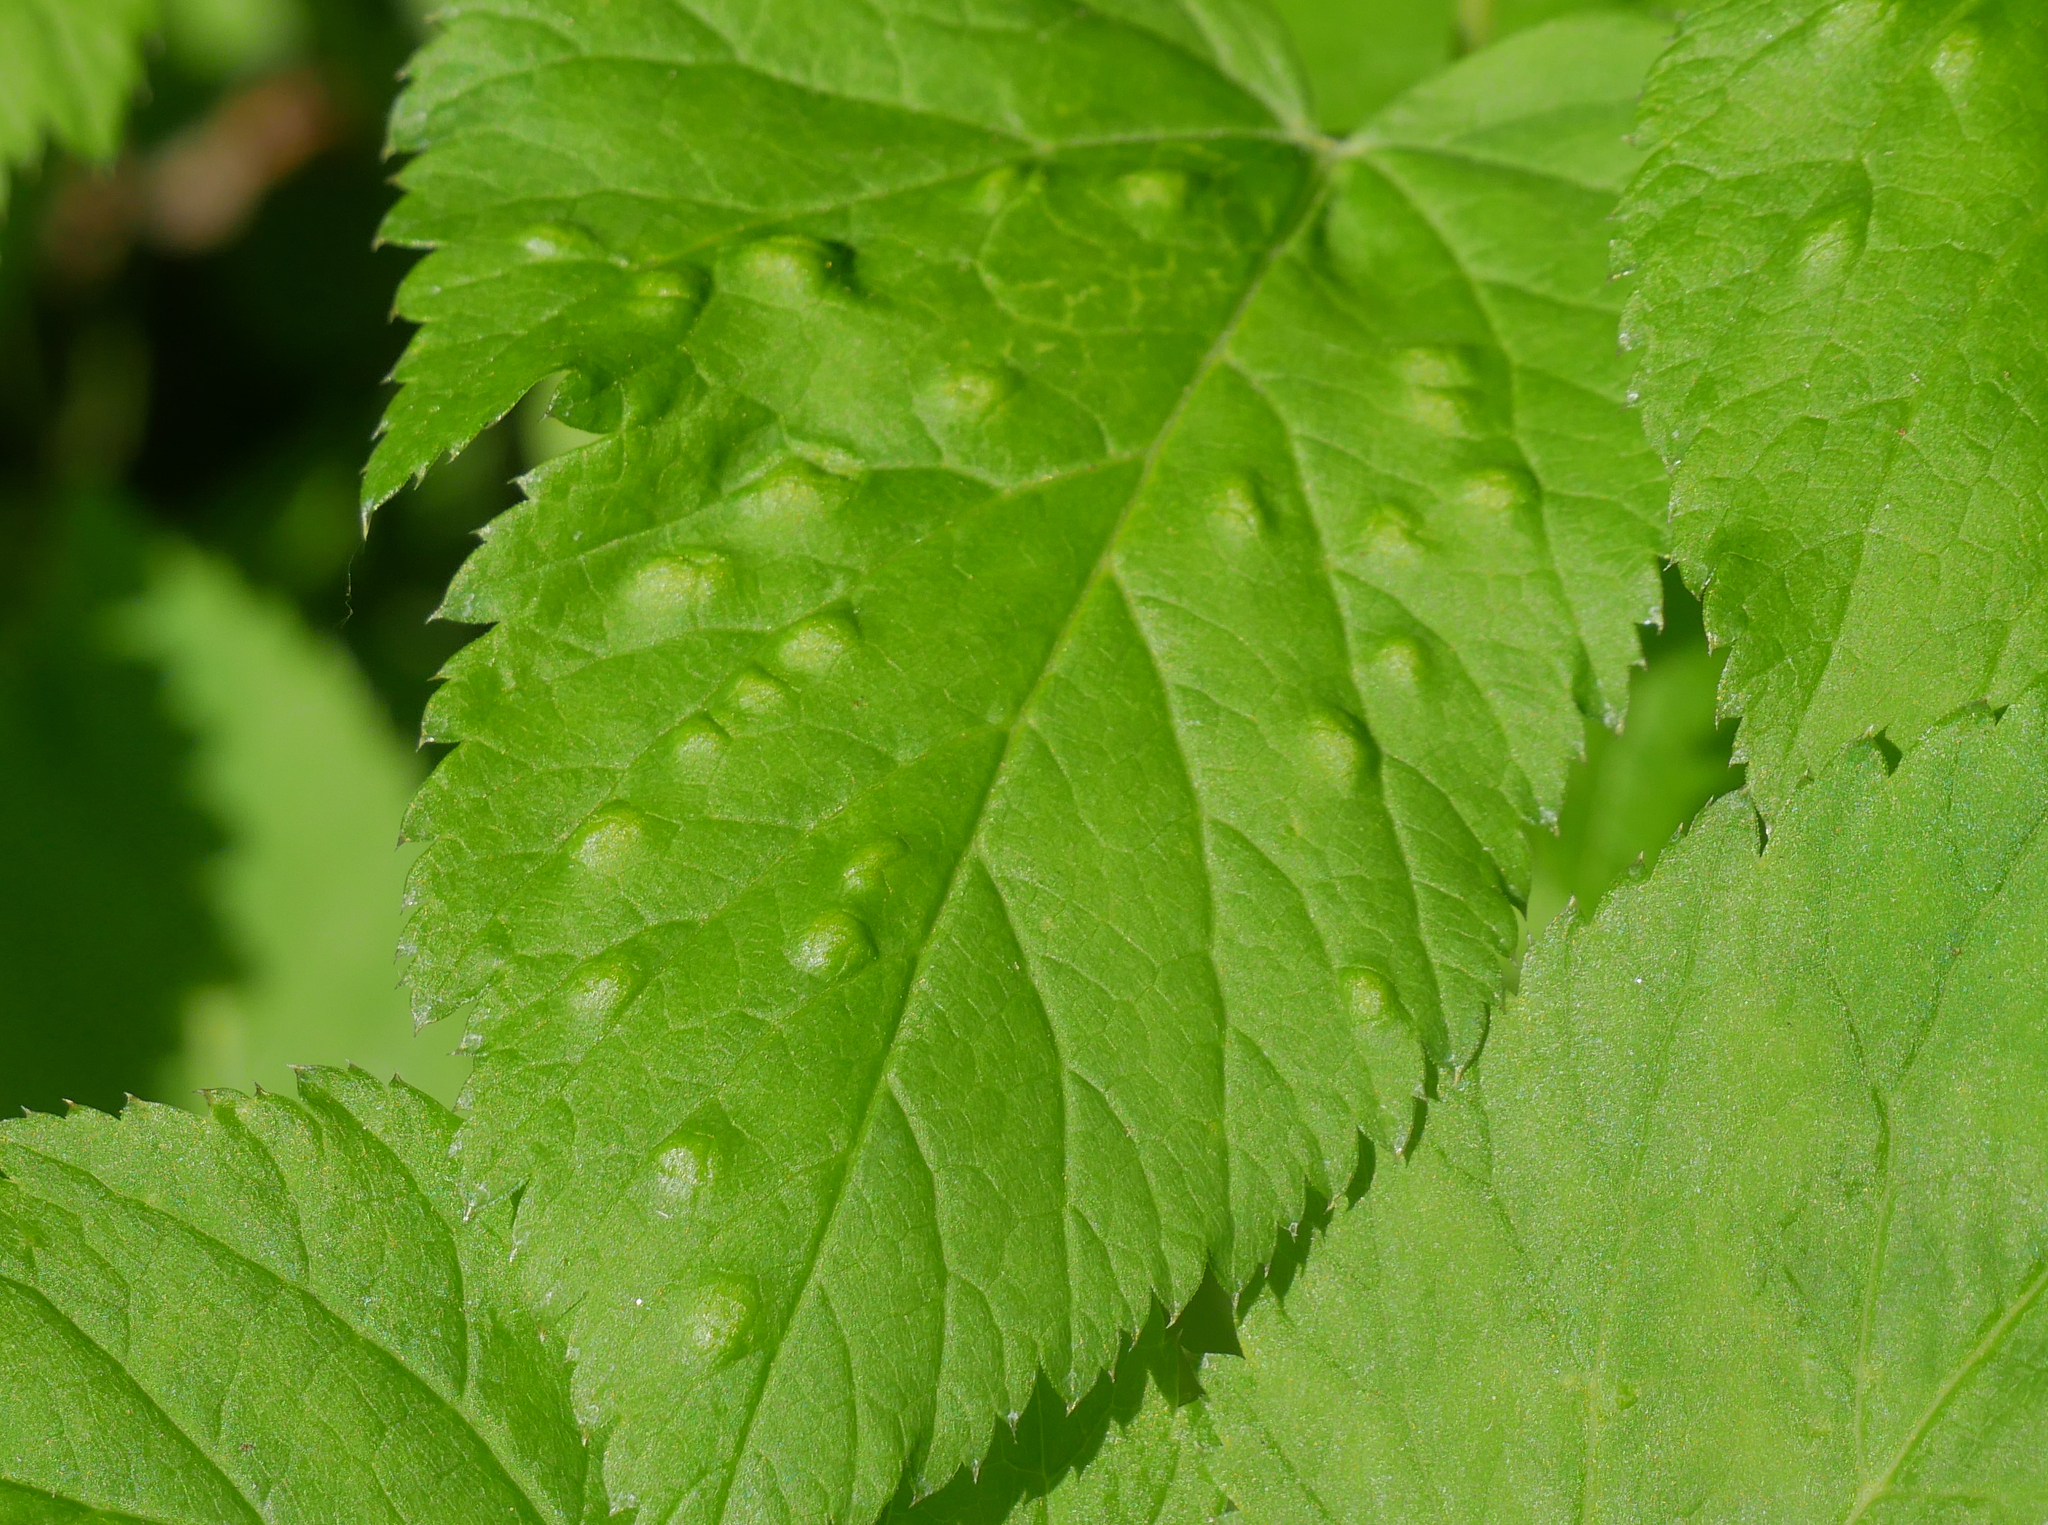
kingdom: Animalia
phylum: Arthropoda
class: Insecta
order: Hemiptera
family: Triozidae
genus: Trioza
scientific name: Trioza flavipennis
